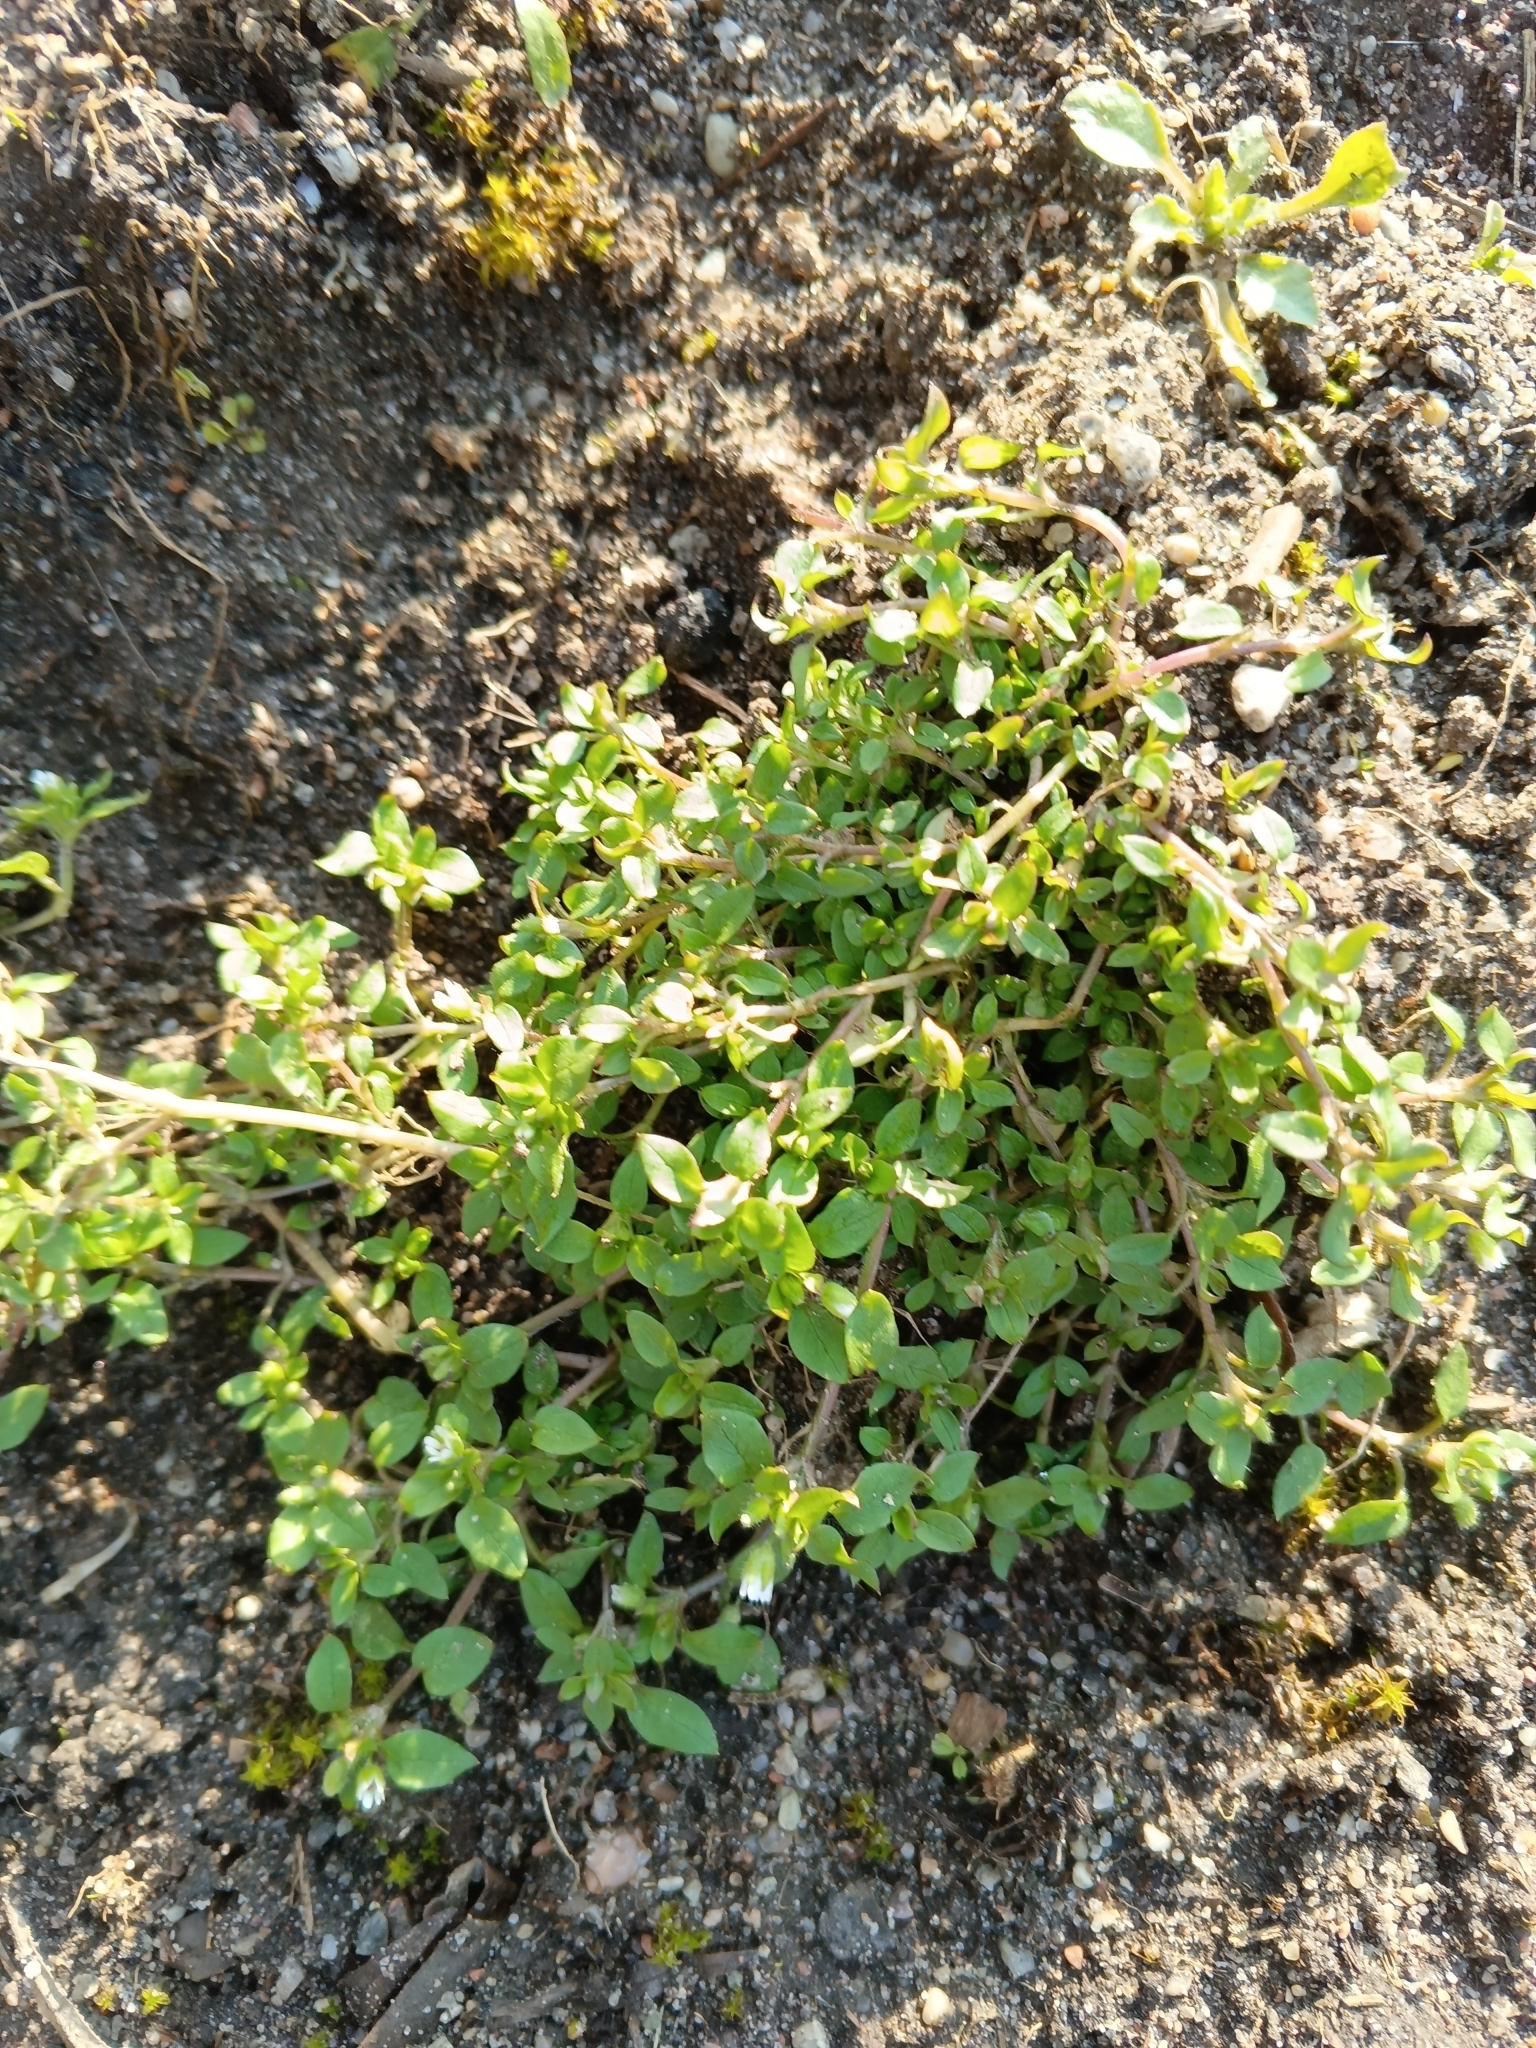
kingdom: Plantae
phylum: Tracheophyta
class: Magnoliopsida
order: Caryophyllales
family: Caryophyllaceae
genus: Stellaria
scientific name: Stellaria media
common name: Common chickweed
